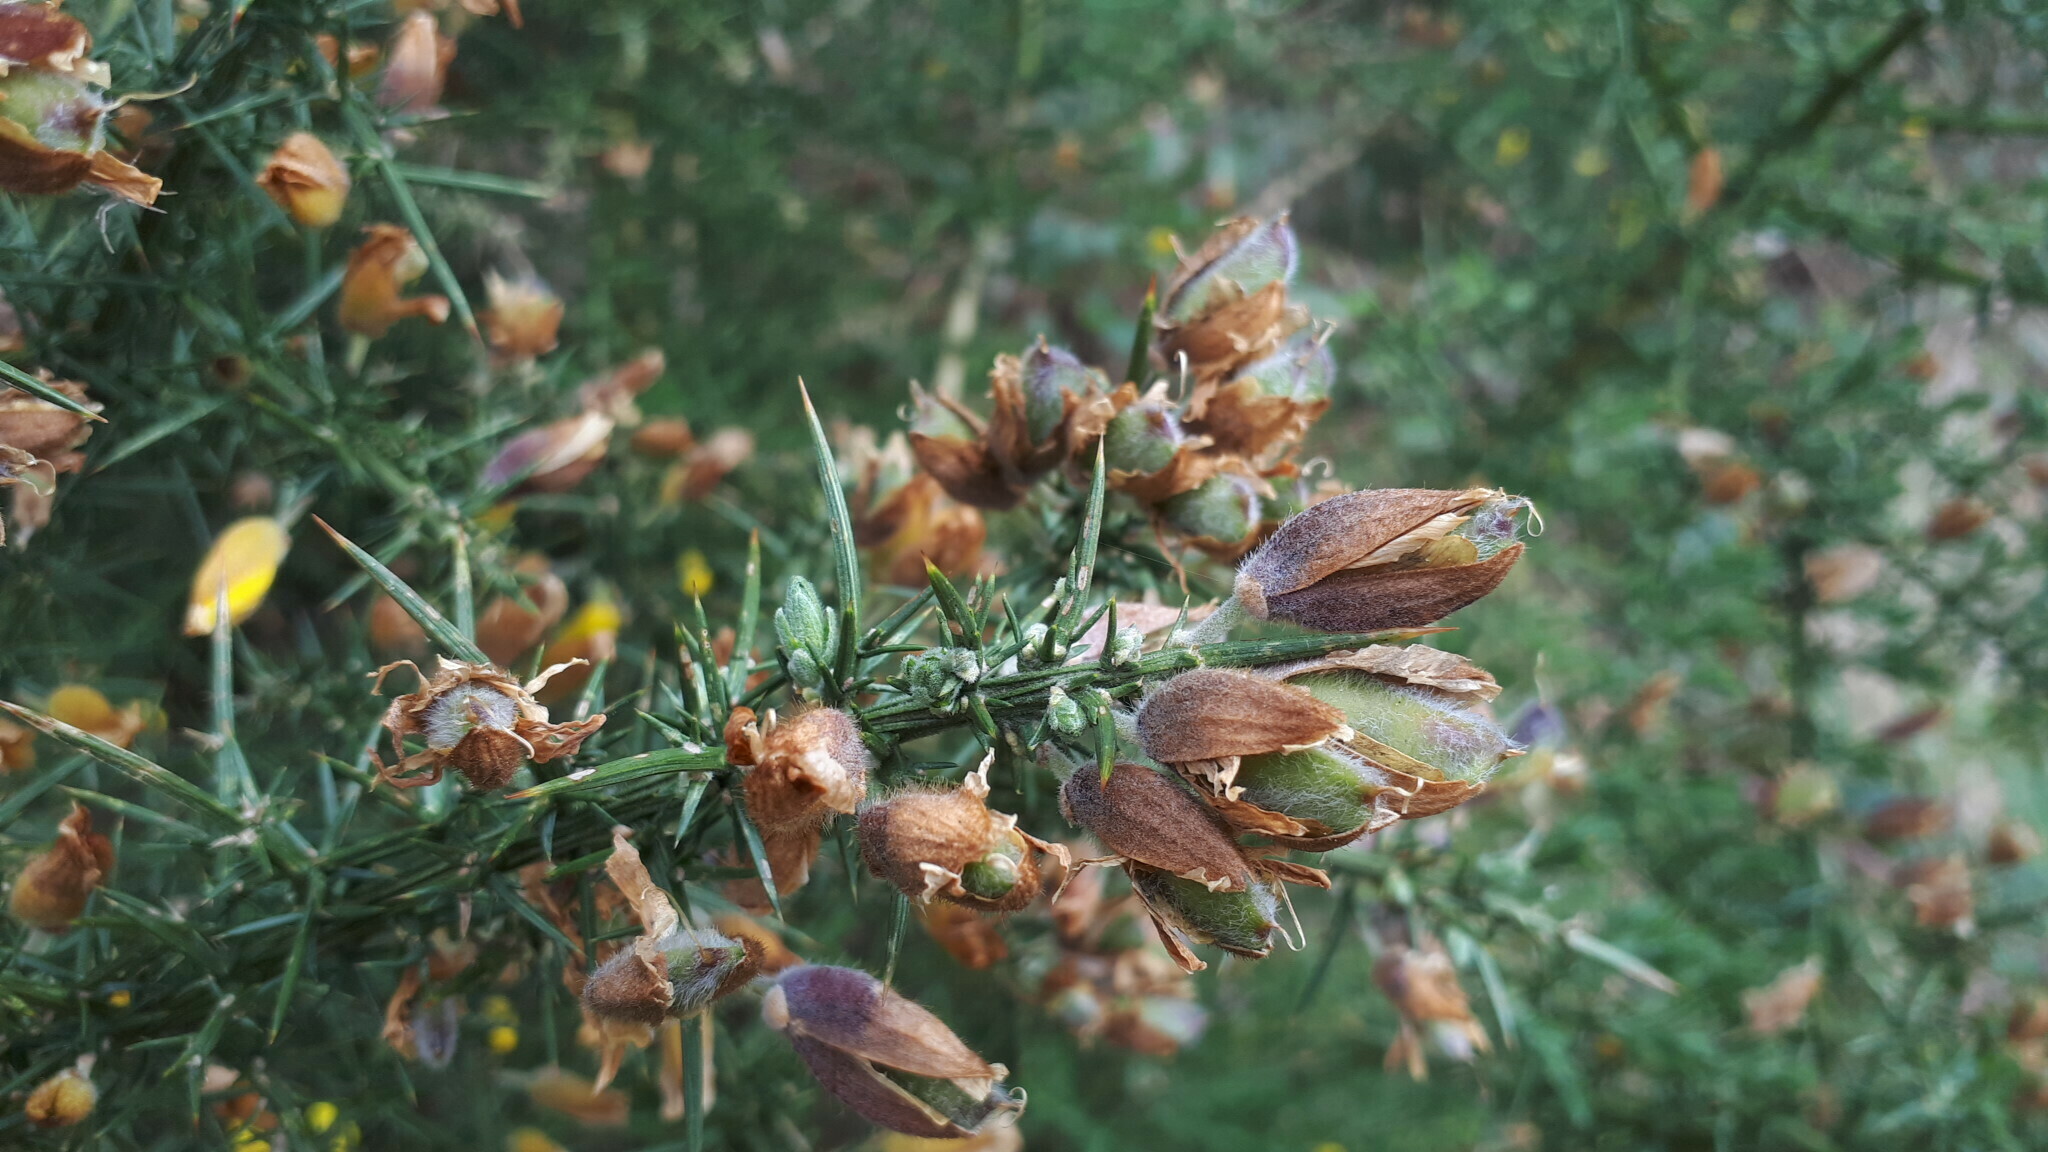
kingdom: Plantae
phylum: Tracheophyta
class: Magnoliopsida
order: Fabales
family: Fabaceae
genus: Ulex
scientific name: Ulex europaeus
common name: Common gorse
